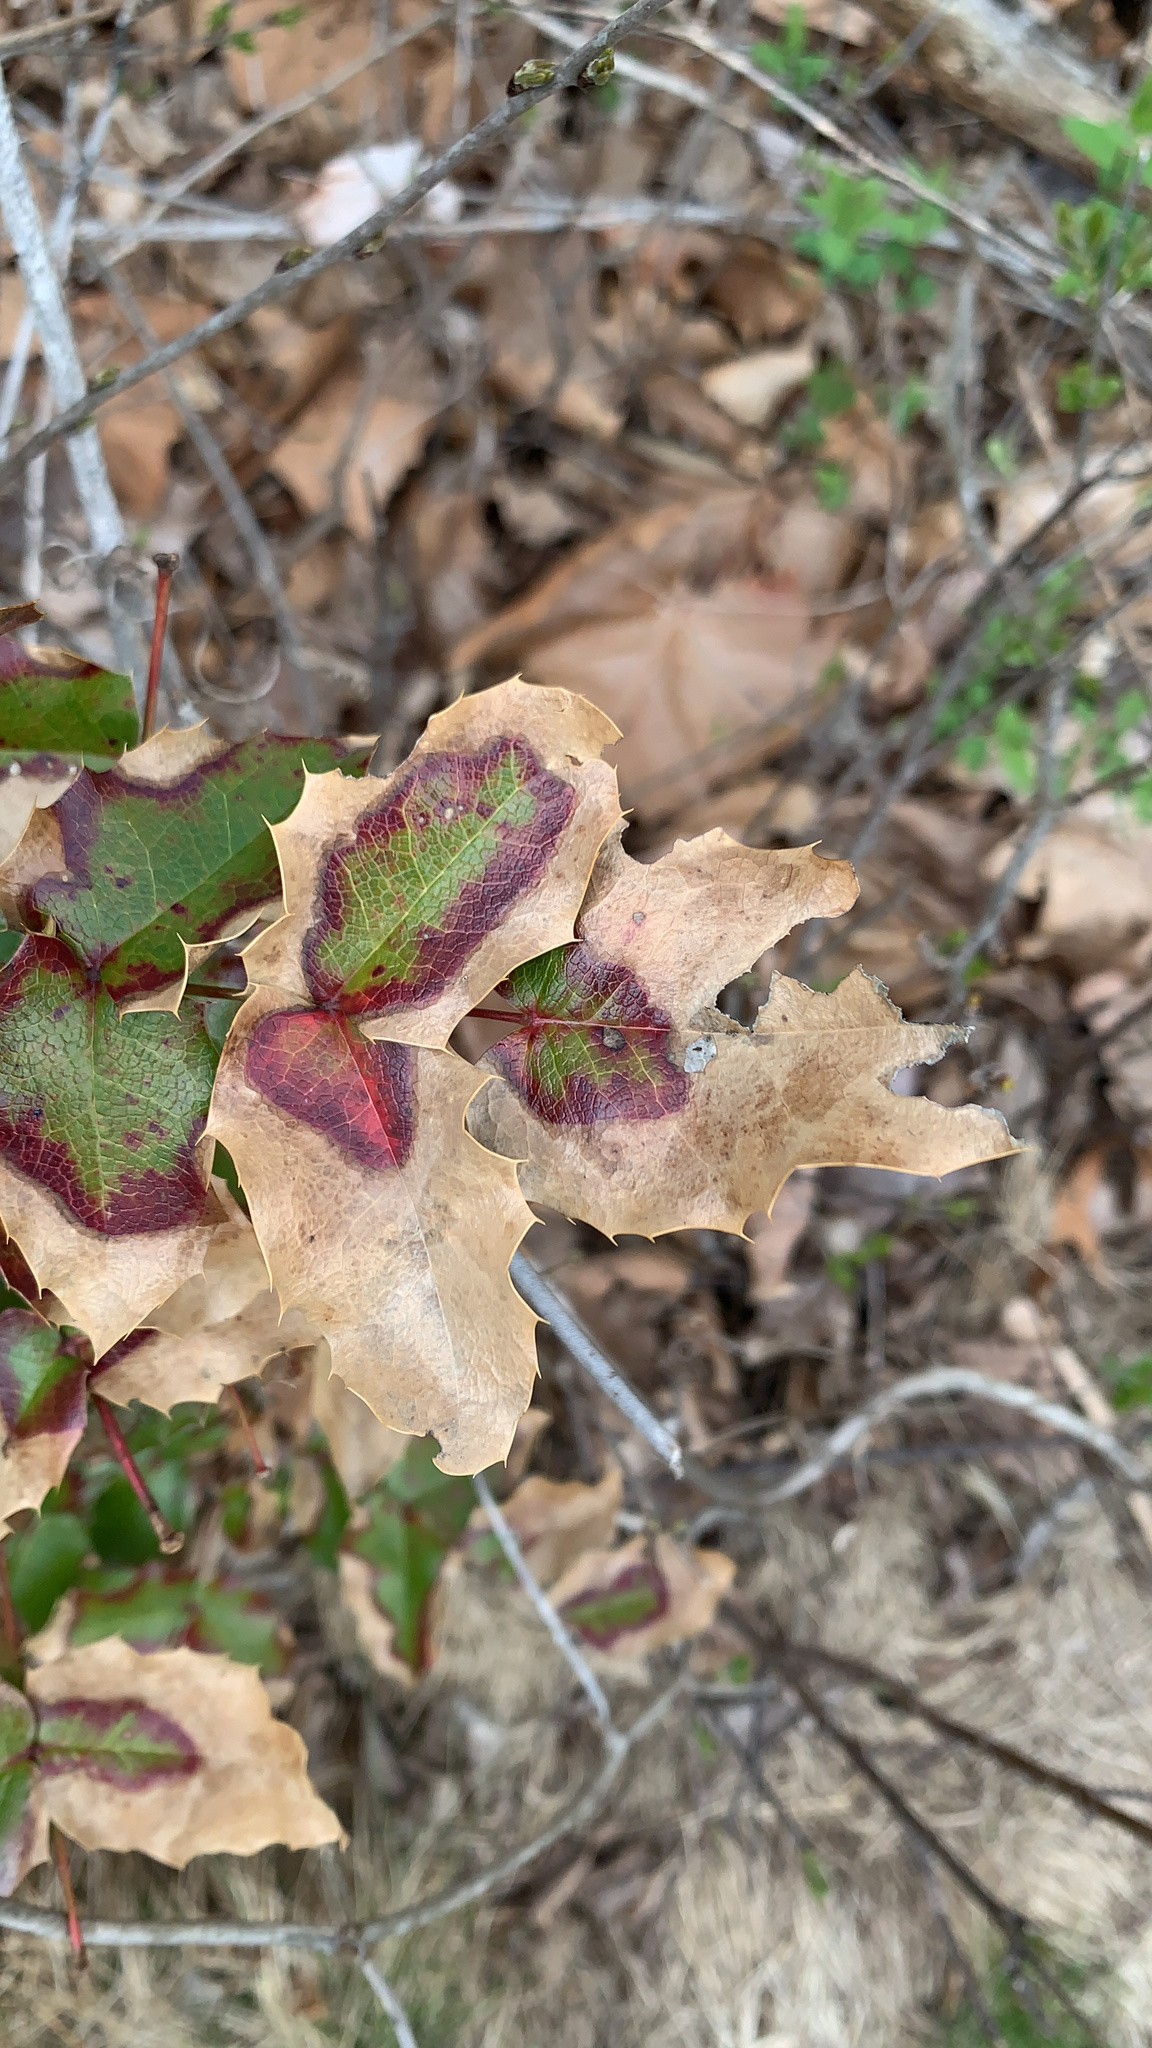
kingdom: Plantae
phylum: Tracheophyta
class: Magnoliopsida
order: Ranunculales
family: Berberidaceae
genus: Mahonia
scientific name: Mahonia aquifolium
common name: Oregon-grape
